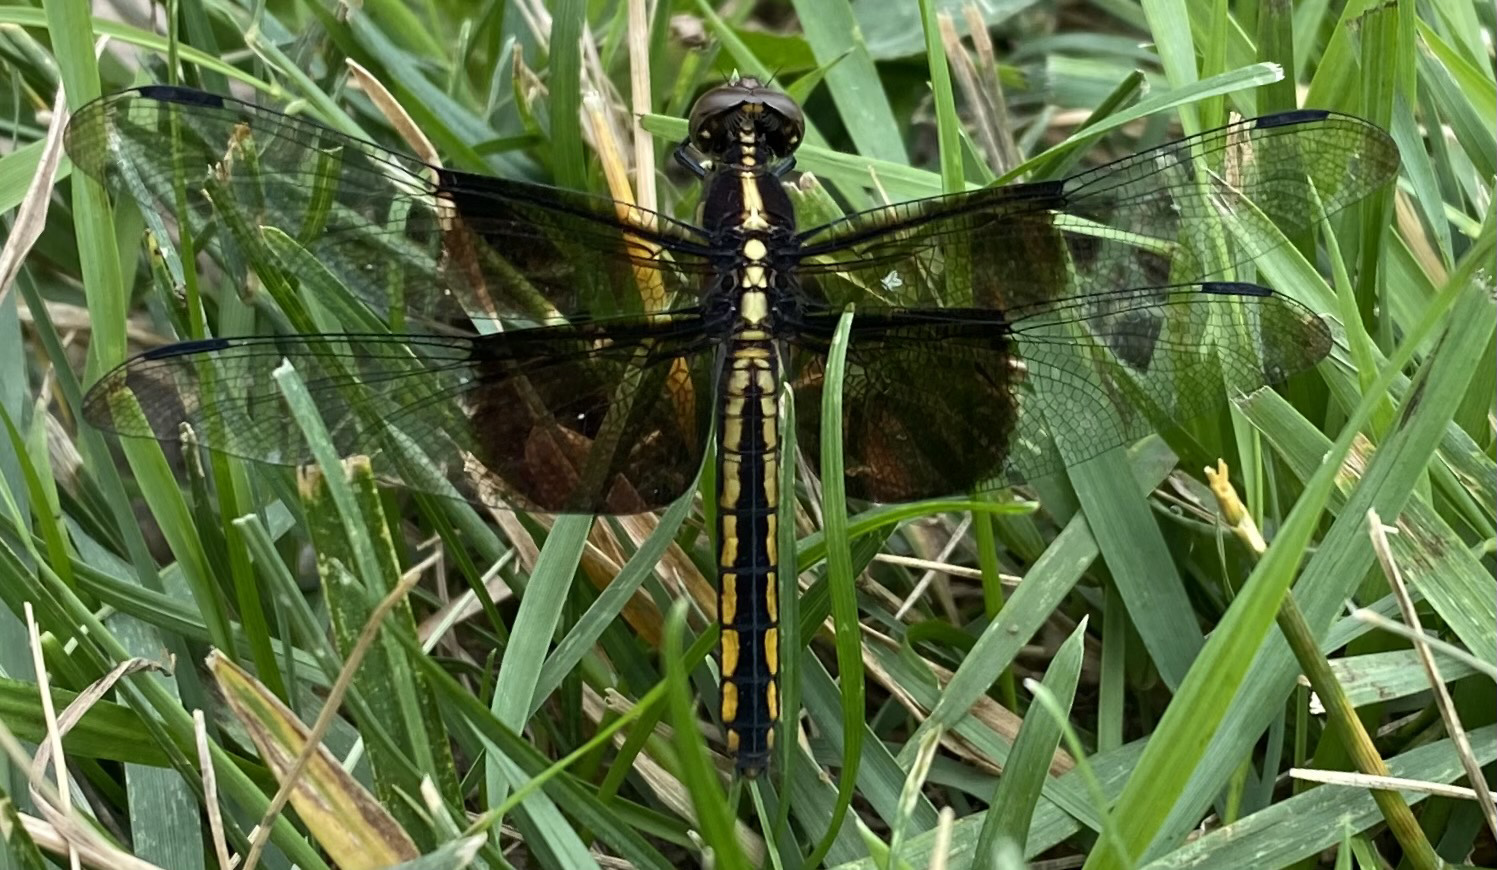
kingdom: Animalia
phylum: Arthropoda
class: Insecta
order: Odonata
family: Libellulidae
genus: Libellula
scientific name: Libellula luctuosa
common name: Widow skimmer
